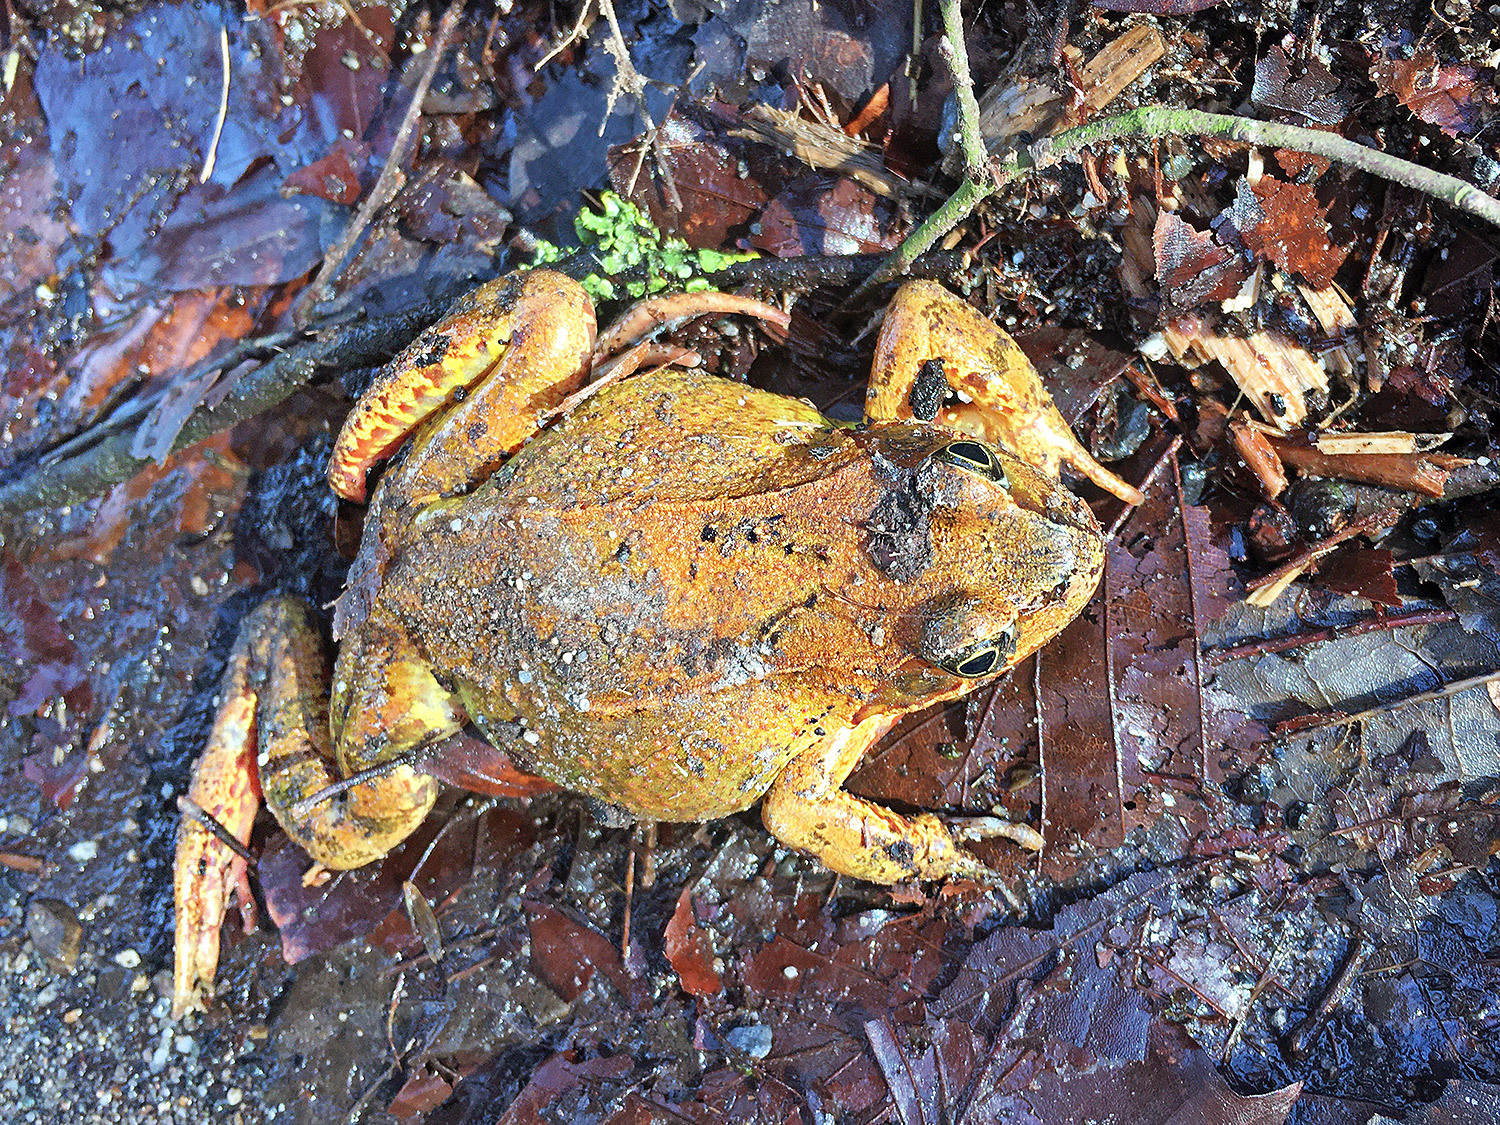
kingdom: Animalia
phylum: Chordata
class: Amphibia
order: Anura
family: Ranidae
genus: Rana
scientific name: Rana temporaria
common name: Common frog
